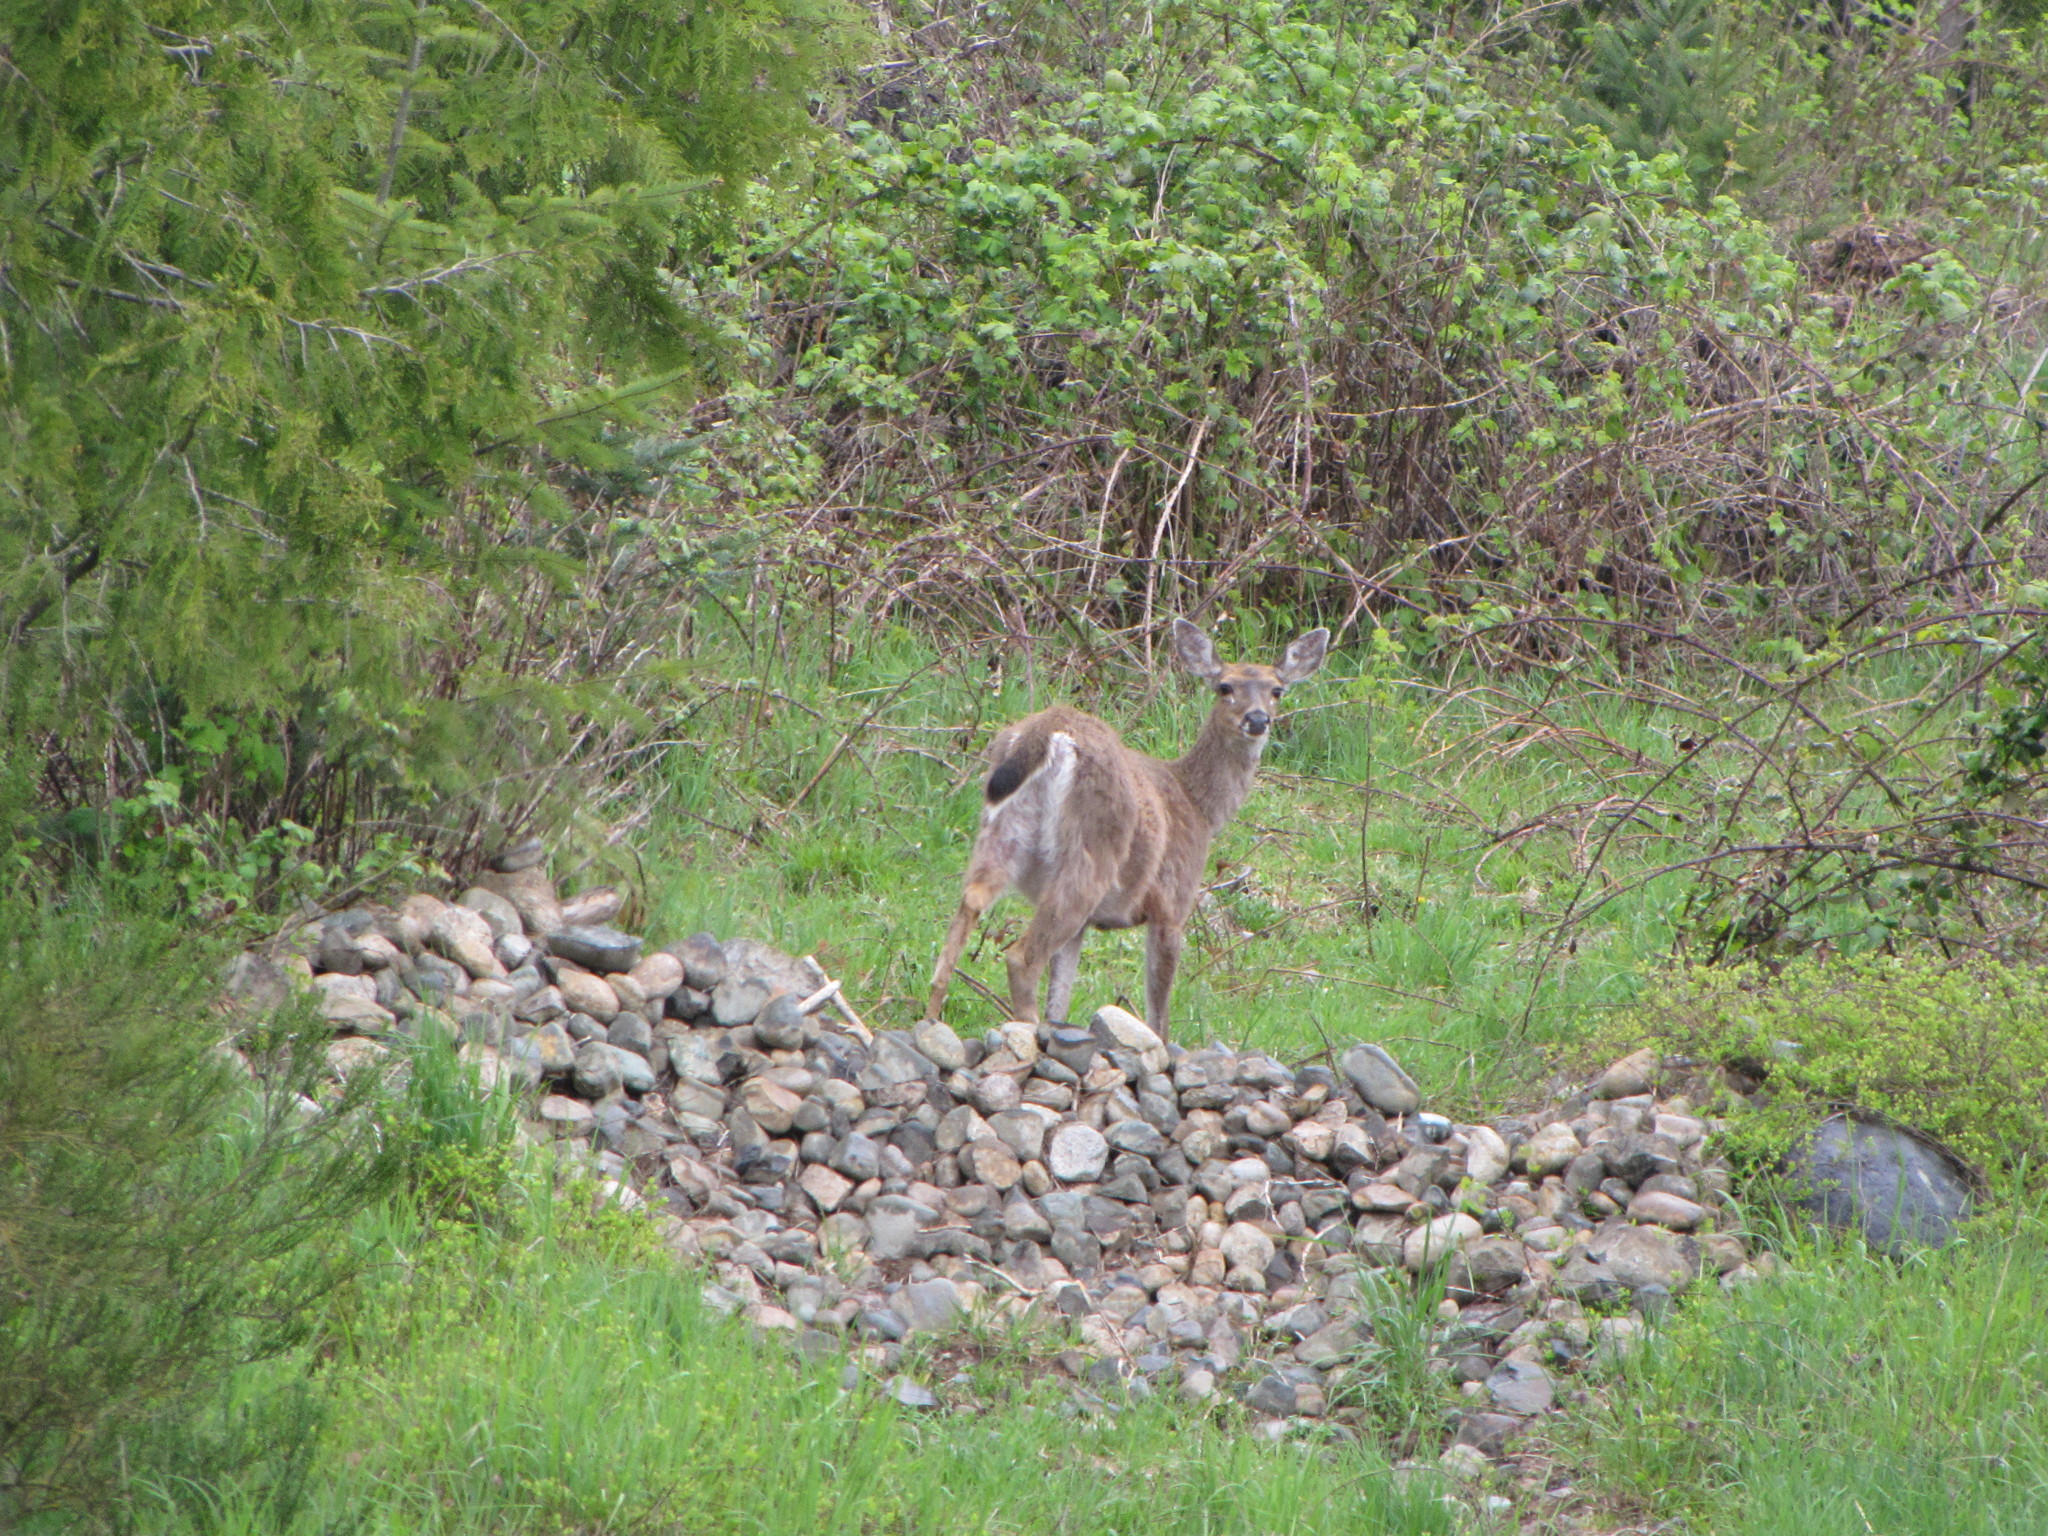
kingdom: Animalia
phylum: Chordata
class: Mammalia
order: Artiodactyla
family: Cervidae
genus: Odocoileus
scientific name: Odocoileus hemionus
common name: Mule deer
